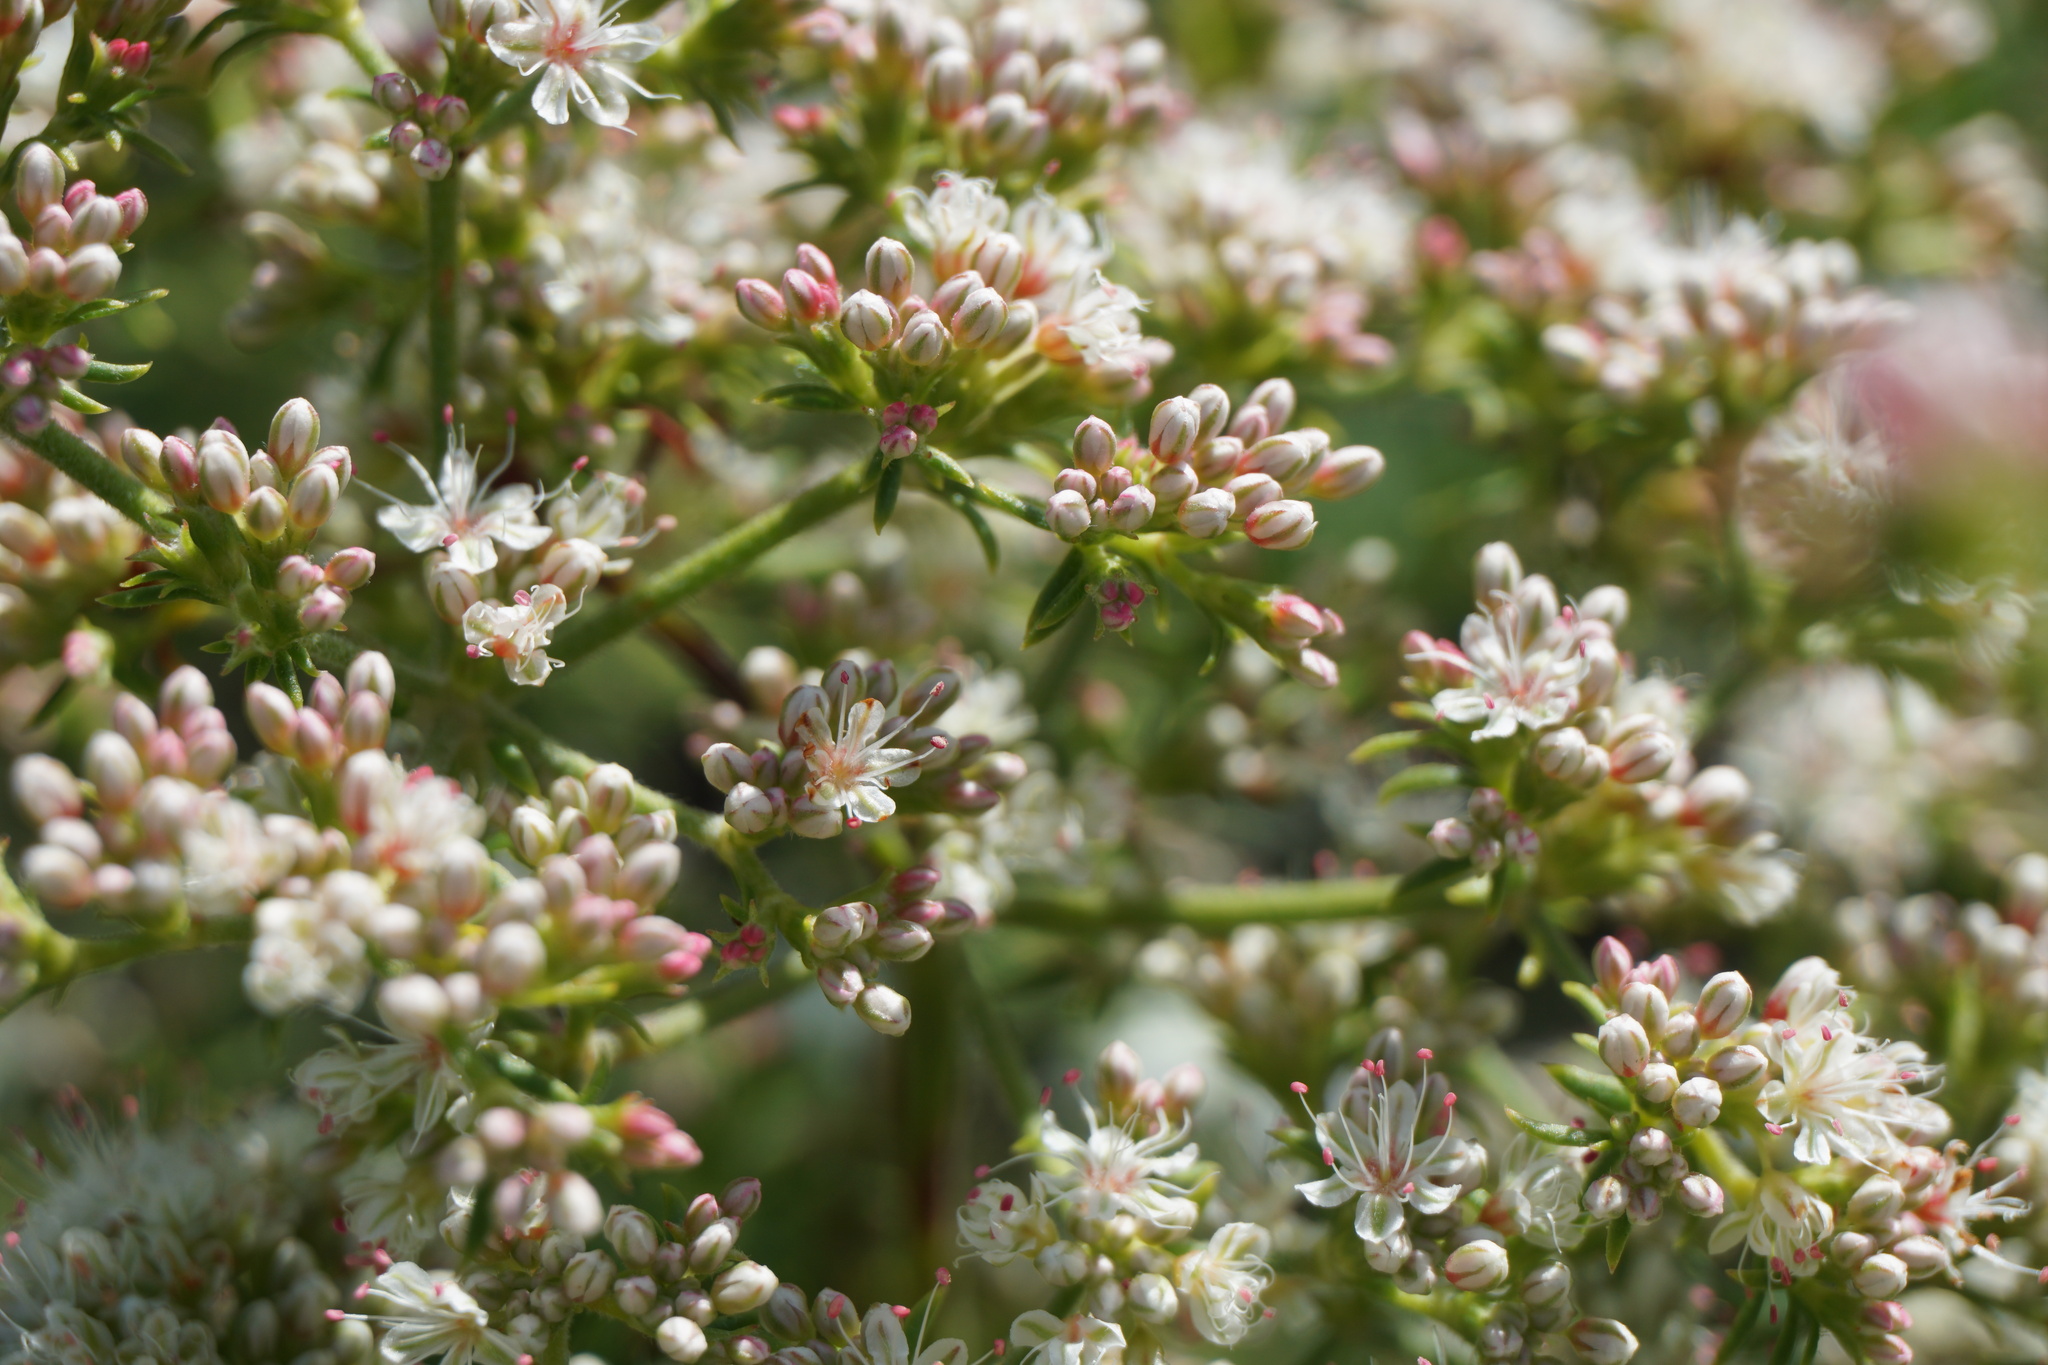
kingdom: Plantae
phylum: Tracheophyta
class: Magnoliopsida
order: Caryophyllales
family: Polygonaceae
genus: Eriogonum
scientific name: Eriogonum fasciculatum
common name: California wild buckwheat
